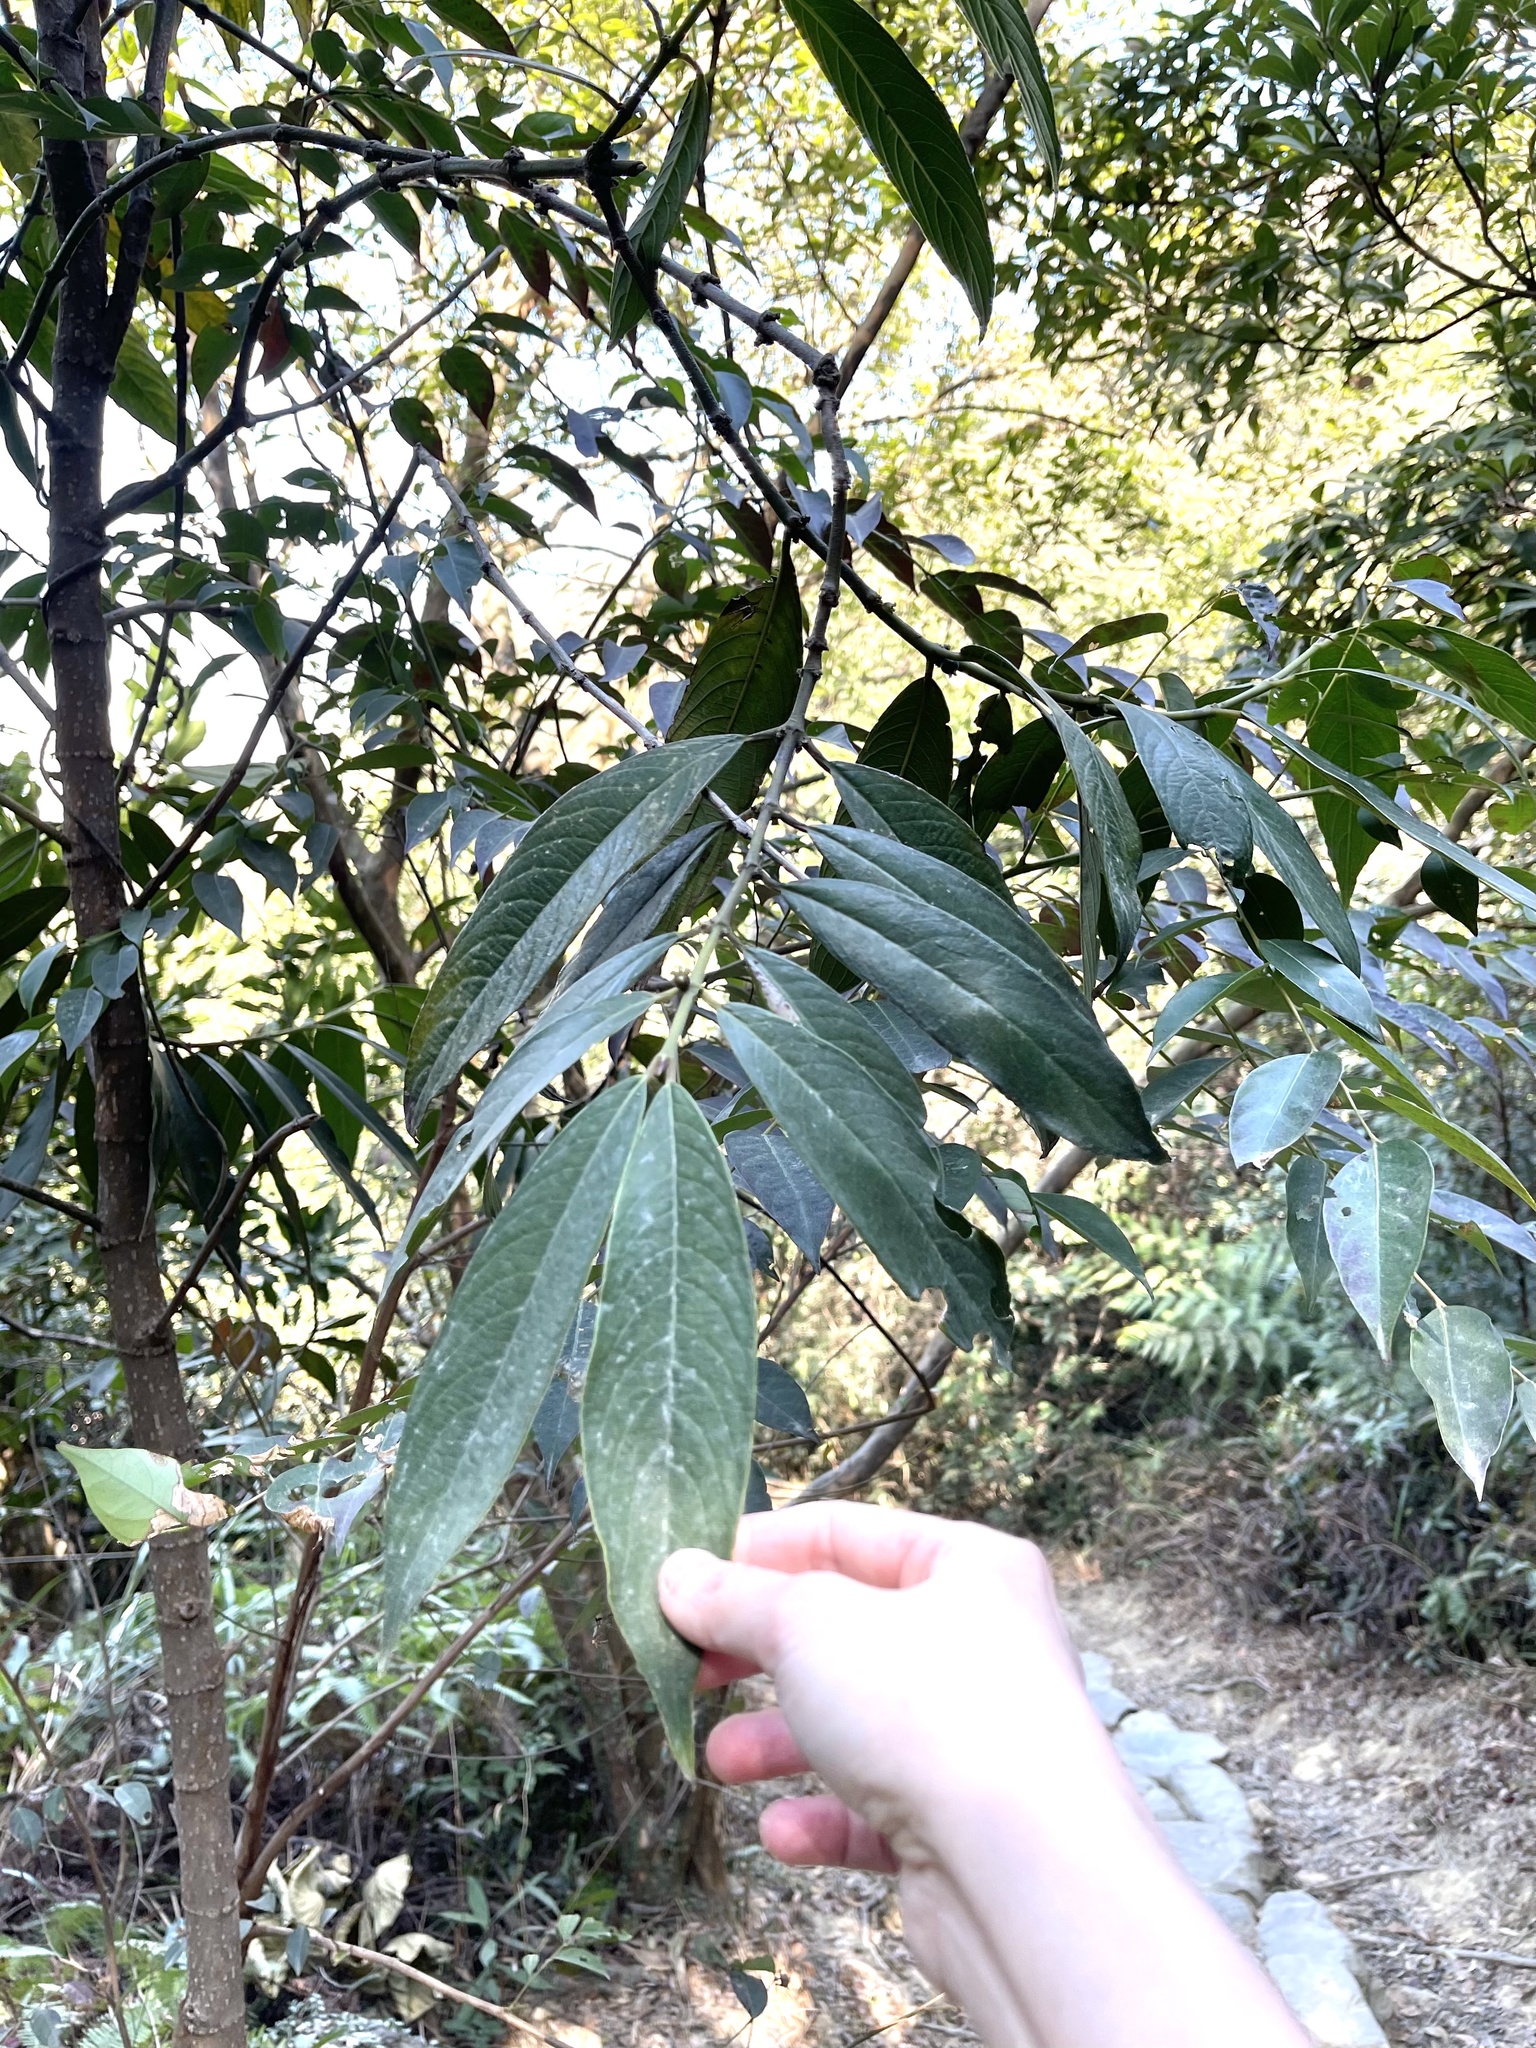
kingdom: Plantae
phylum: Tracheophyta
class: Magnoliopsida
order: Gentianales
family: Rubiaceae
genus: Lasianthus
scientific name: Lasianthus chinensis
